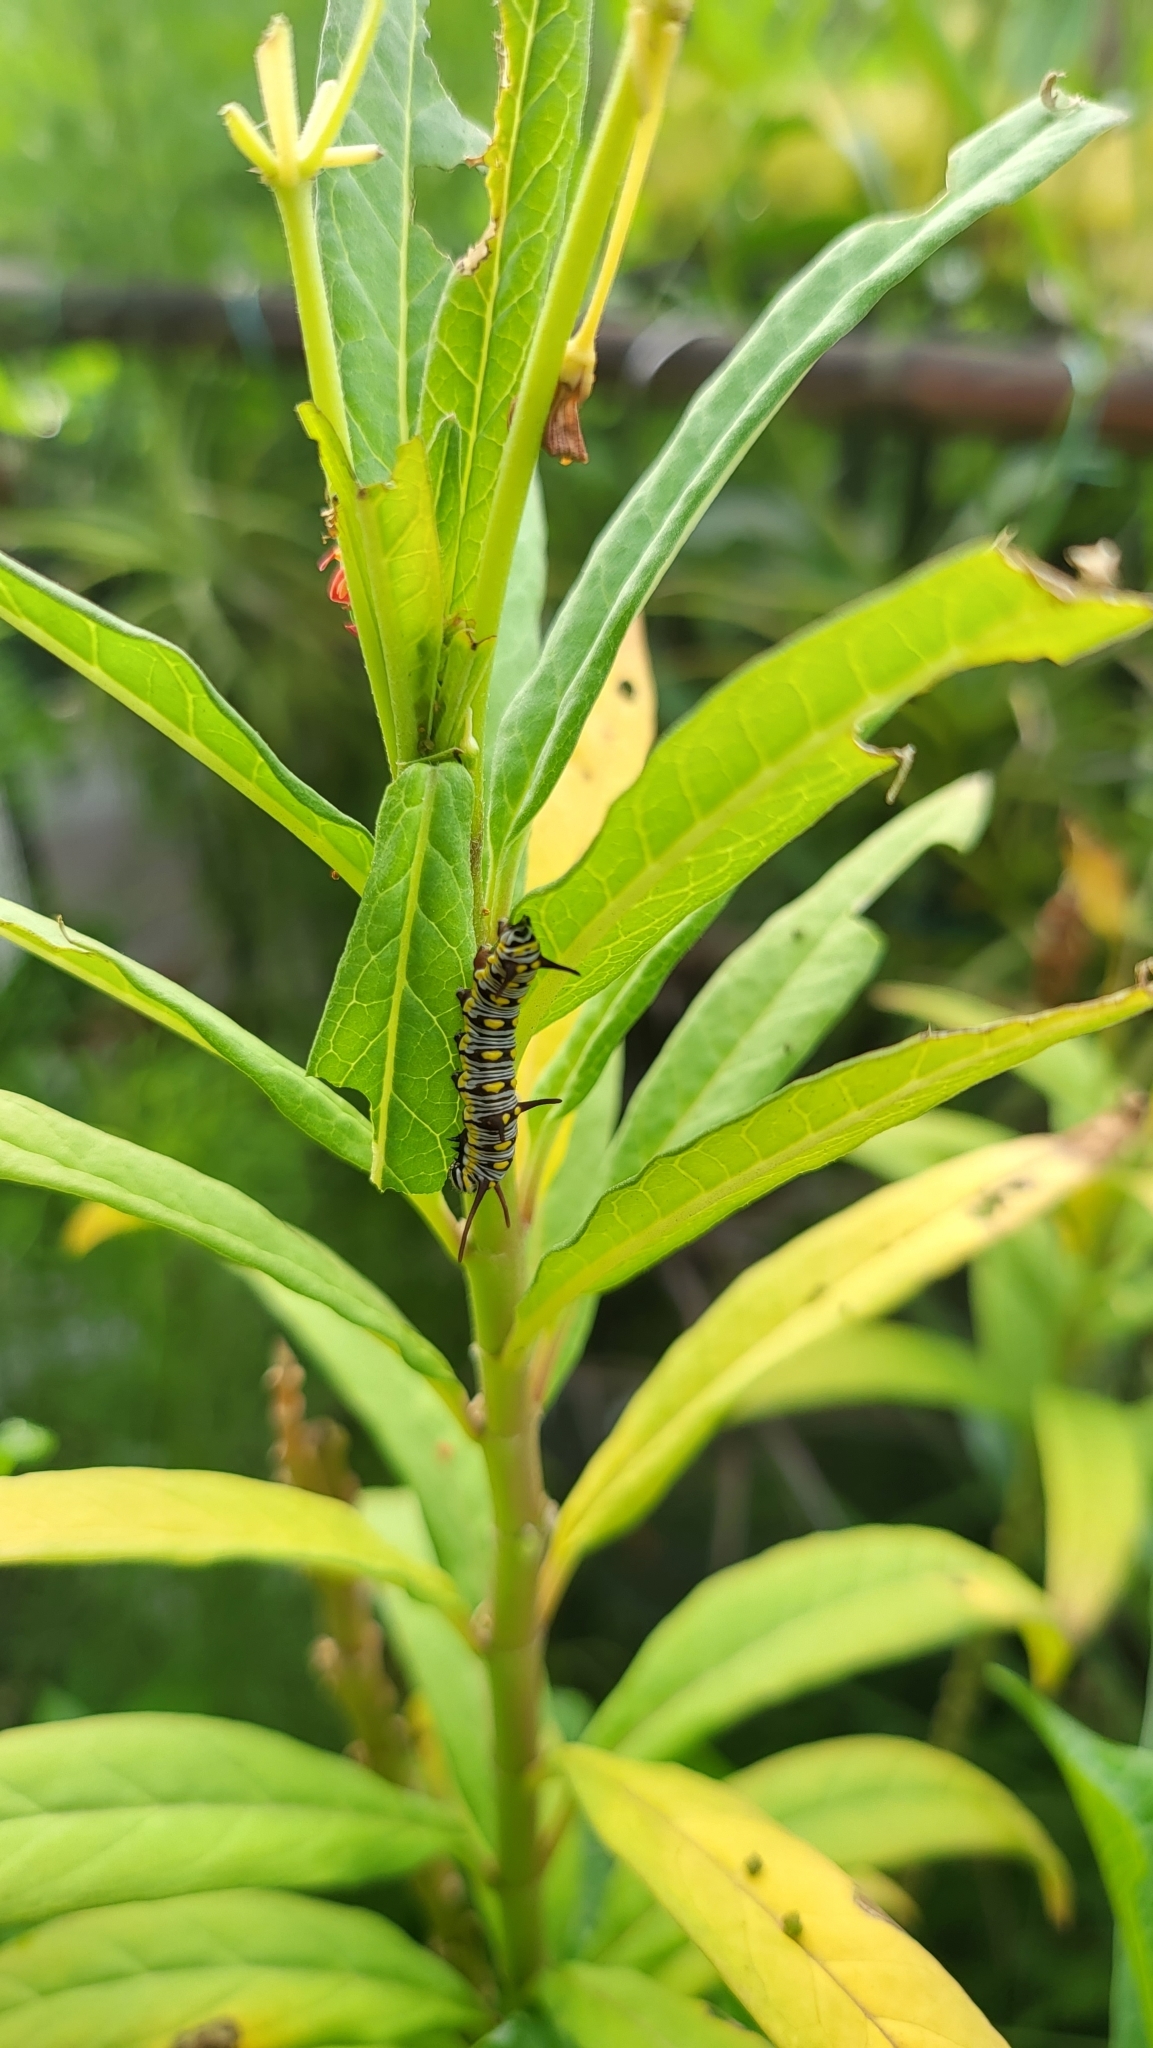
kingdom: Animalia
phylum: Arthropoda
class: Insecta
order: Lepidoptera
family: Nymphalidae
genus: Danaus
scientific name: Danaus chrysippus
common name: Plain tiger
